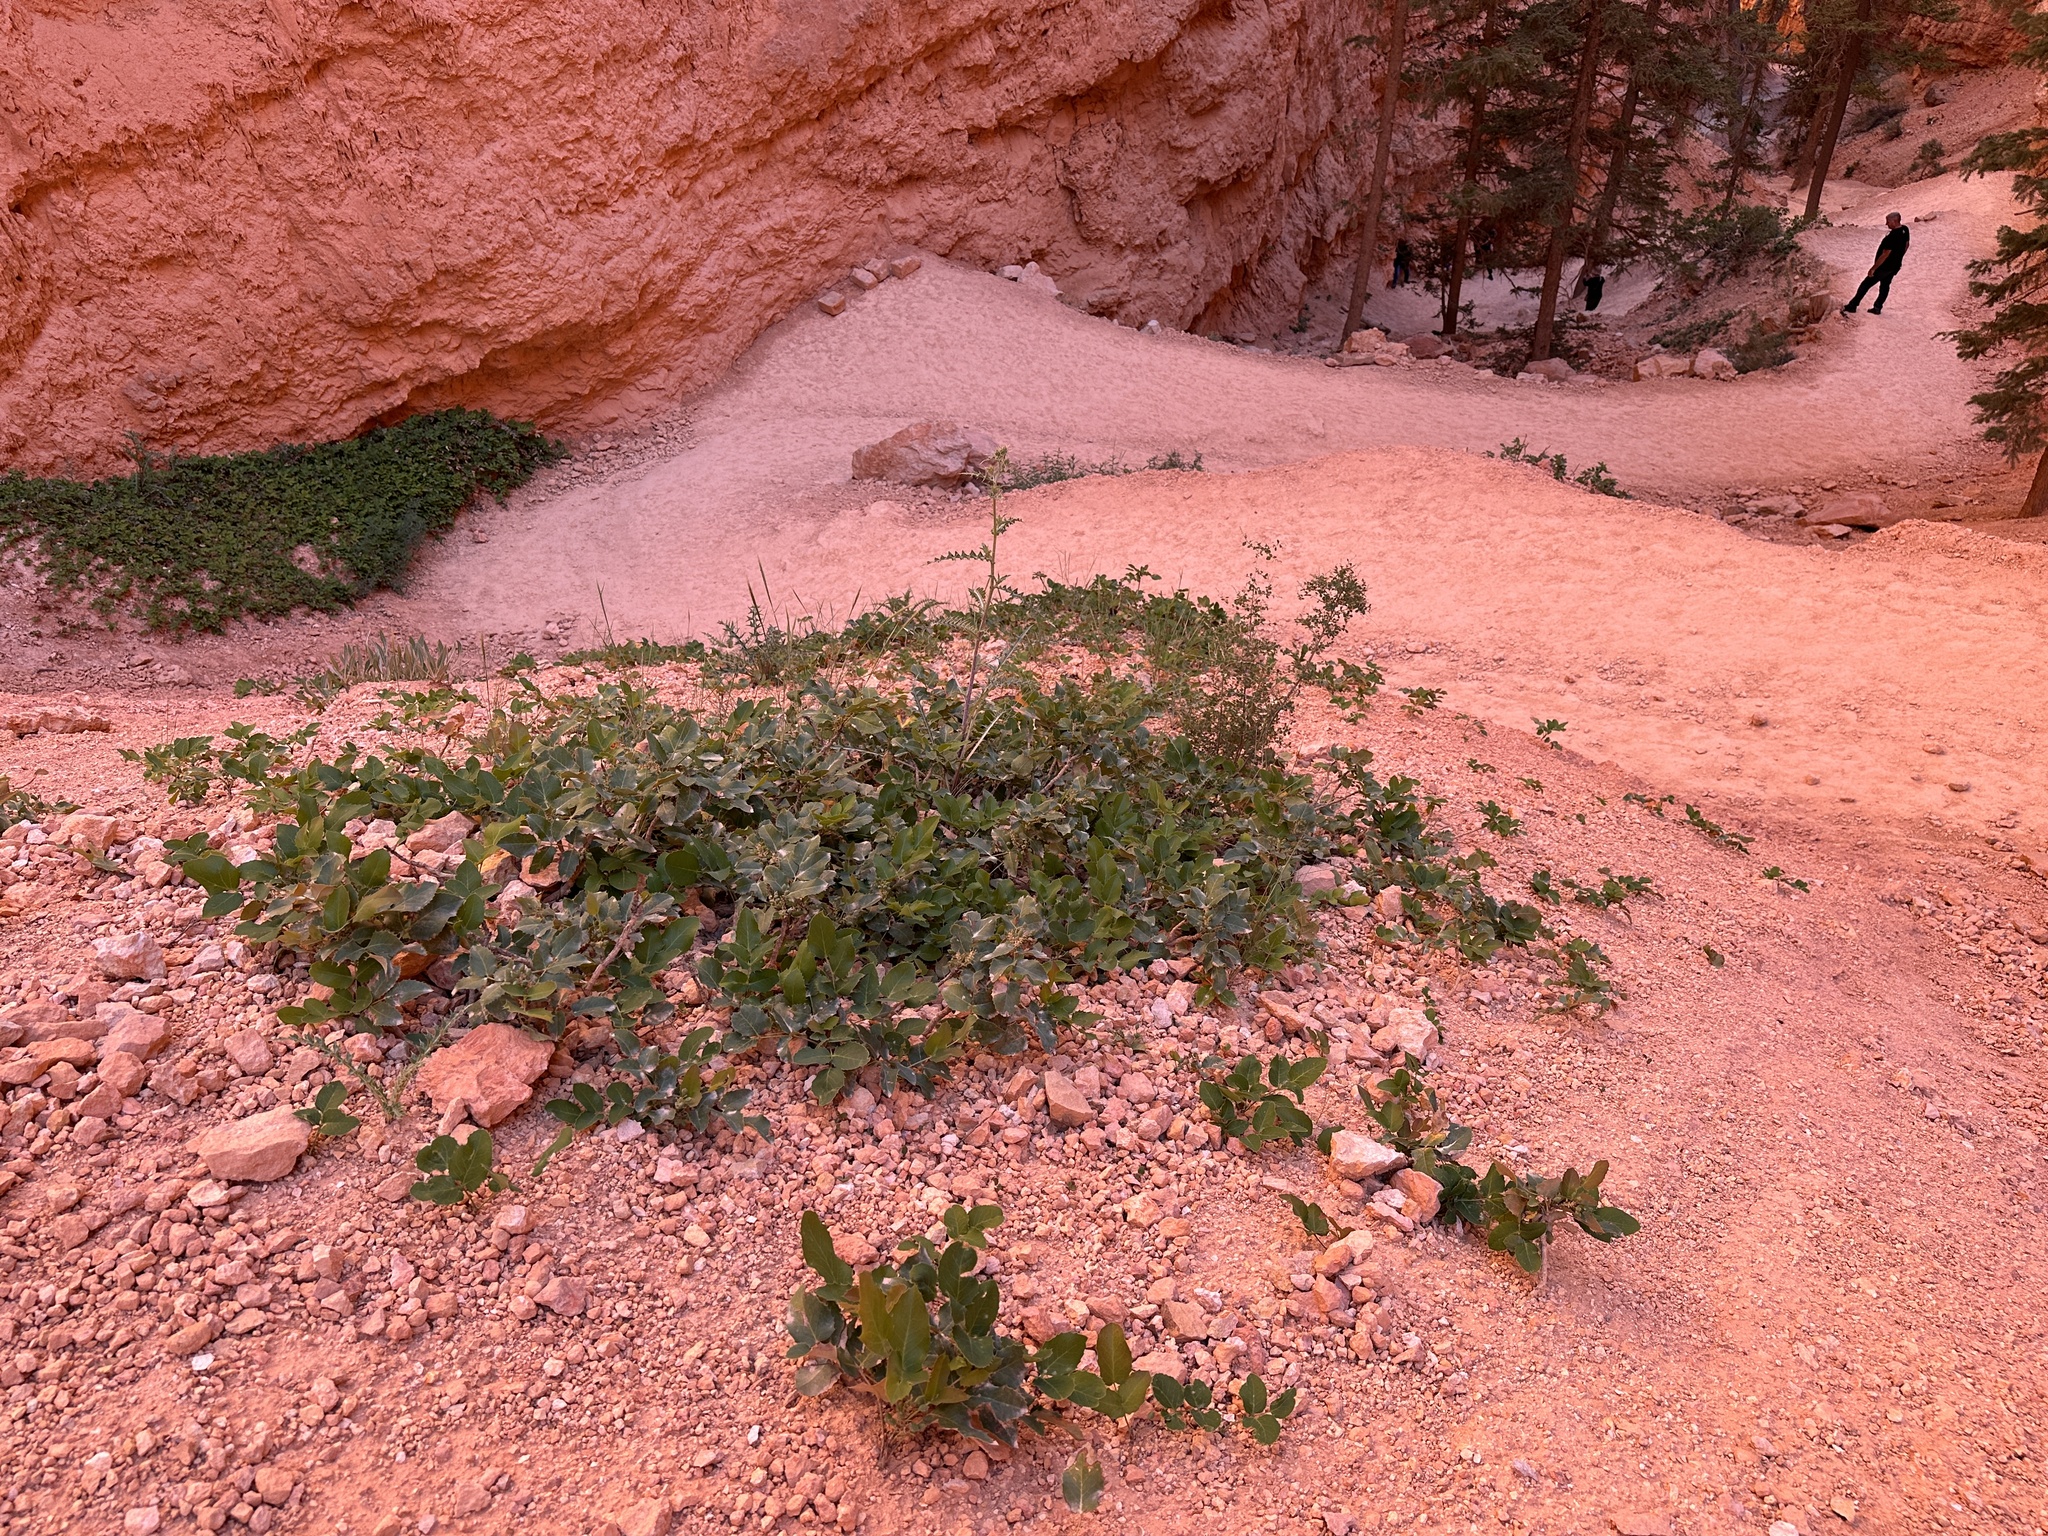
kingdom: Plantae
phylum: Tracheophyta
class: Magnoliopsida
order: Ranunculales
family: Berberidaceae
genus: Mahonia
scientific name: Mahonia repens
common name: Creeping oregon-grape
